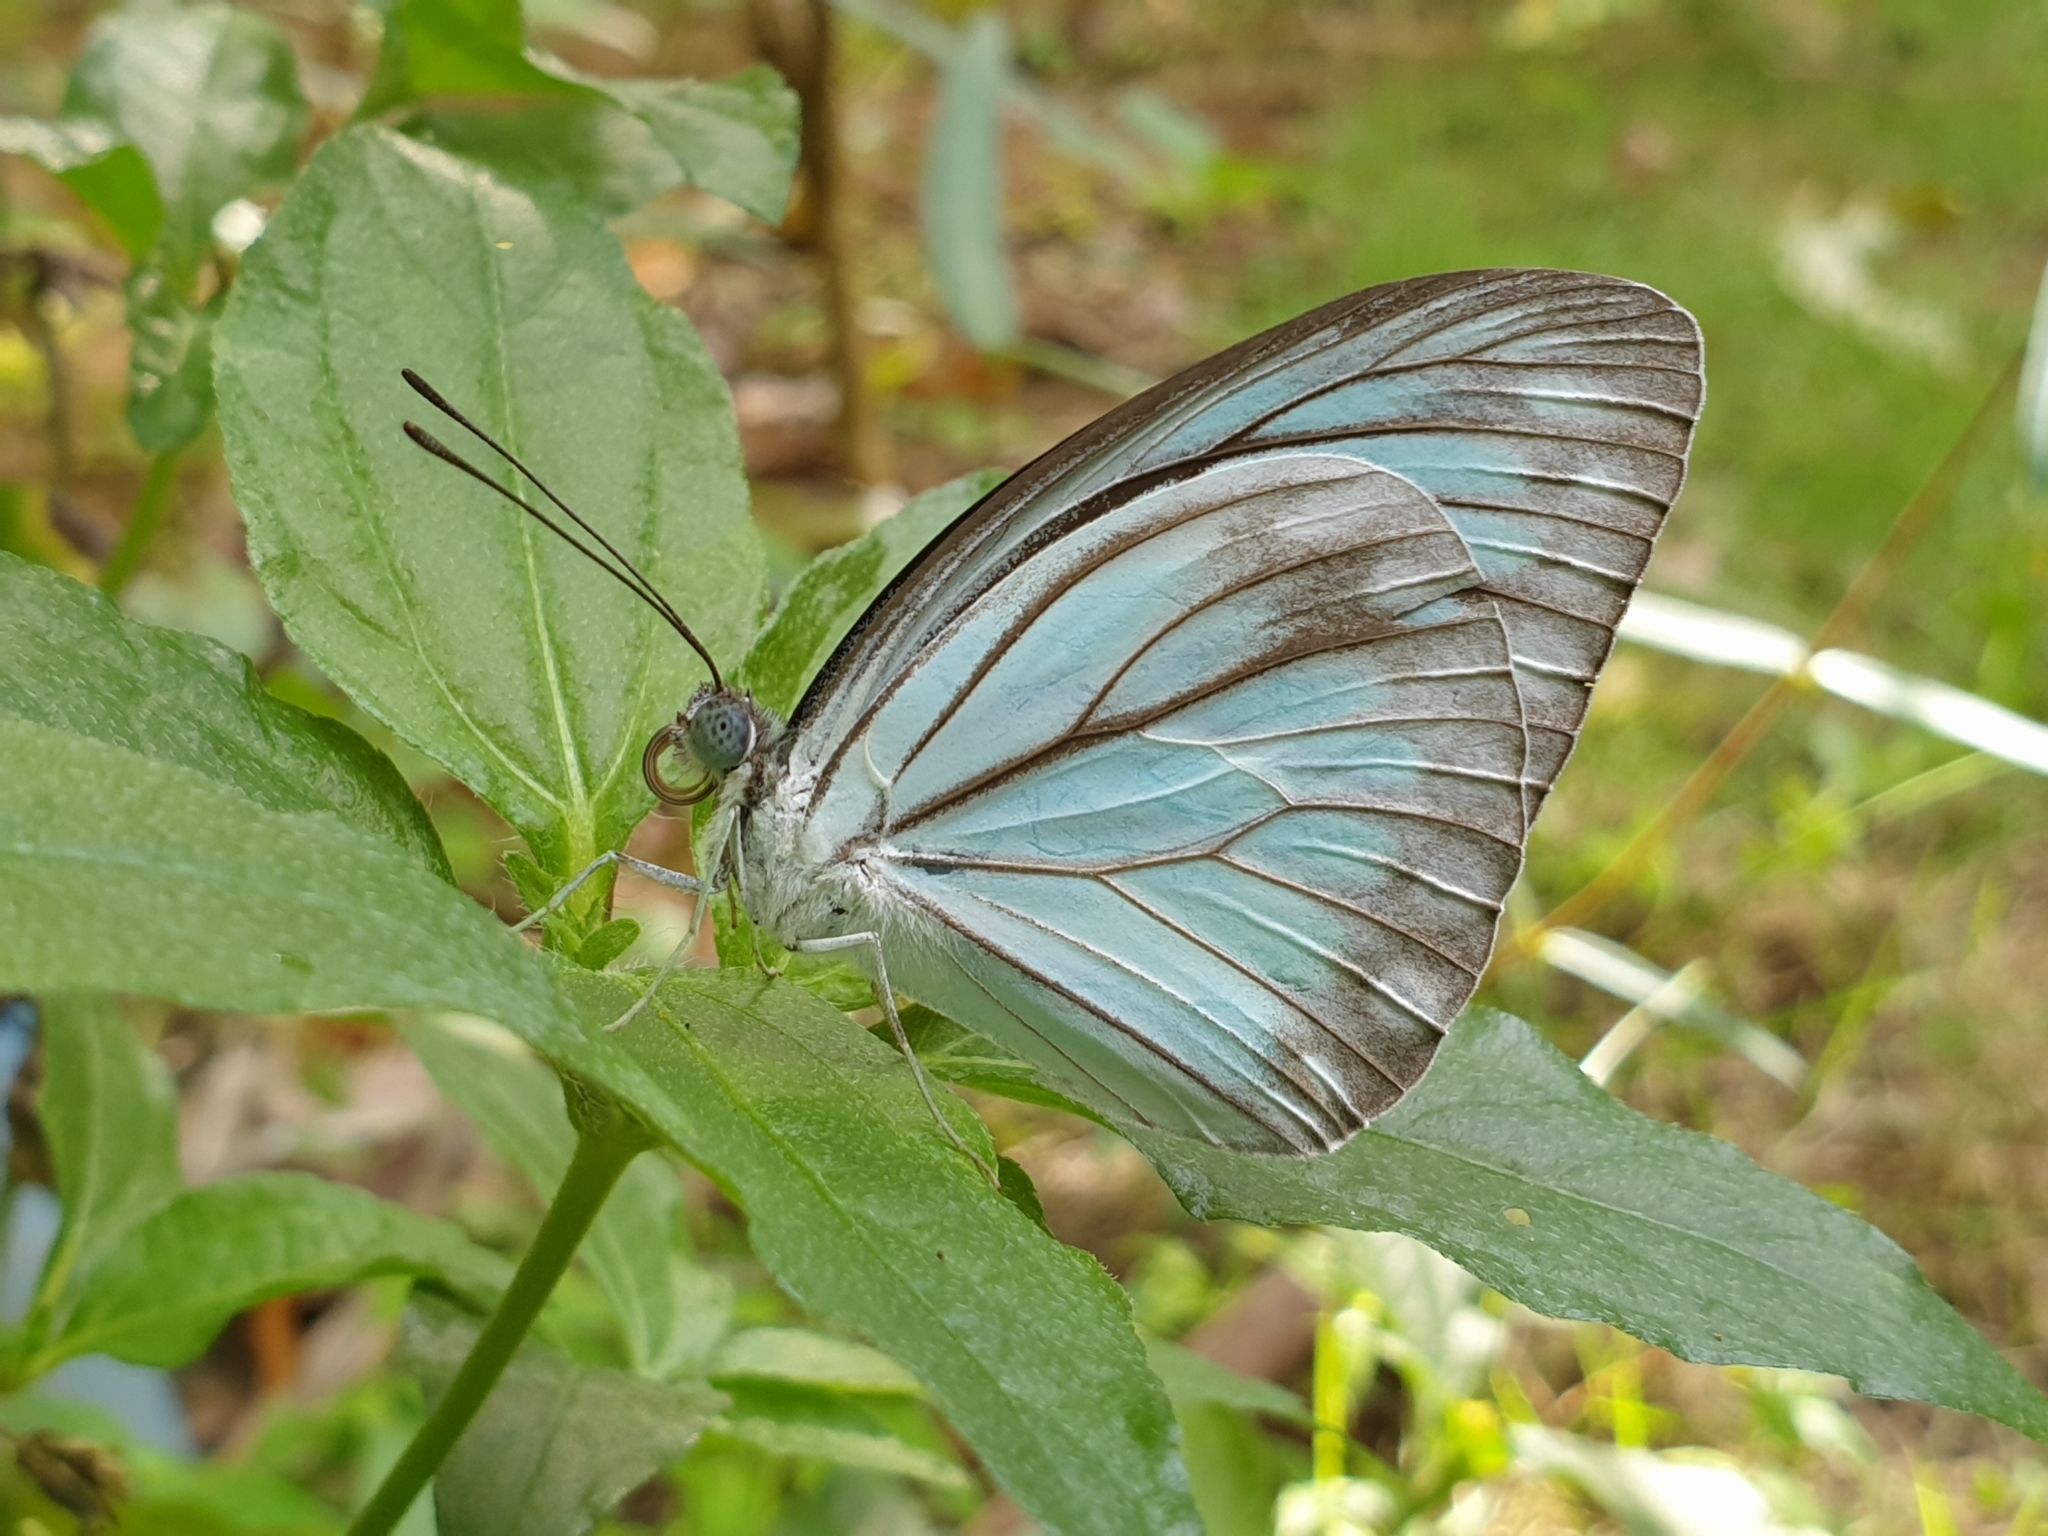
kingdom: Animalia
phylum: Arthropoda
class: Insecta
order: Lepidoptera
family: Pieridae
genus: Pareronia
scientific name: Pareronia ceylanica
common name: Dark wanderer
